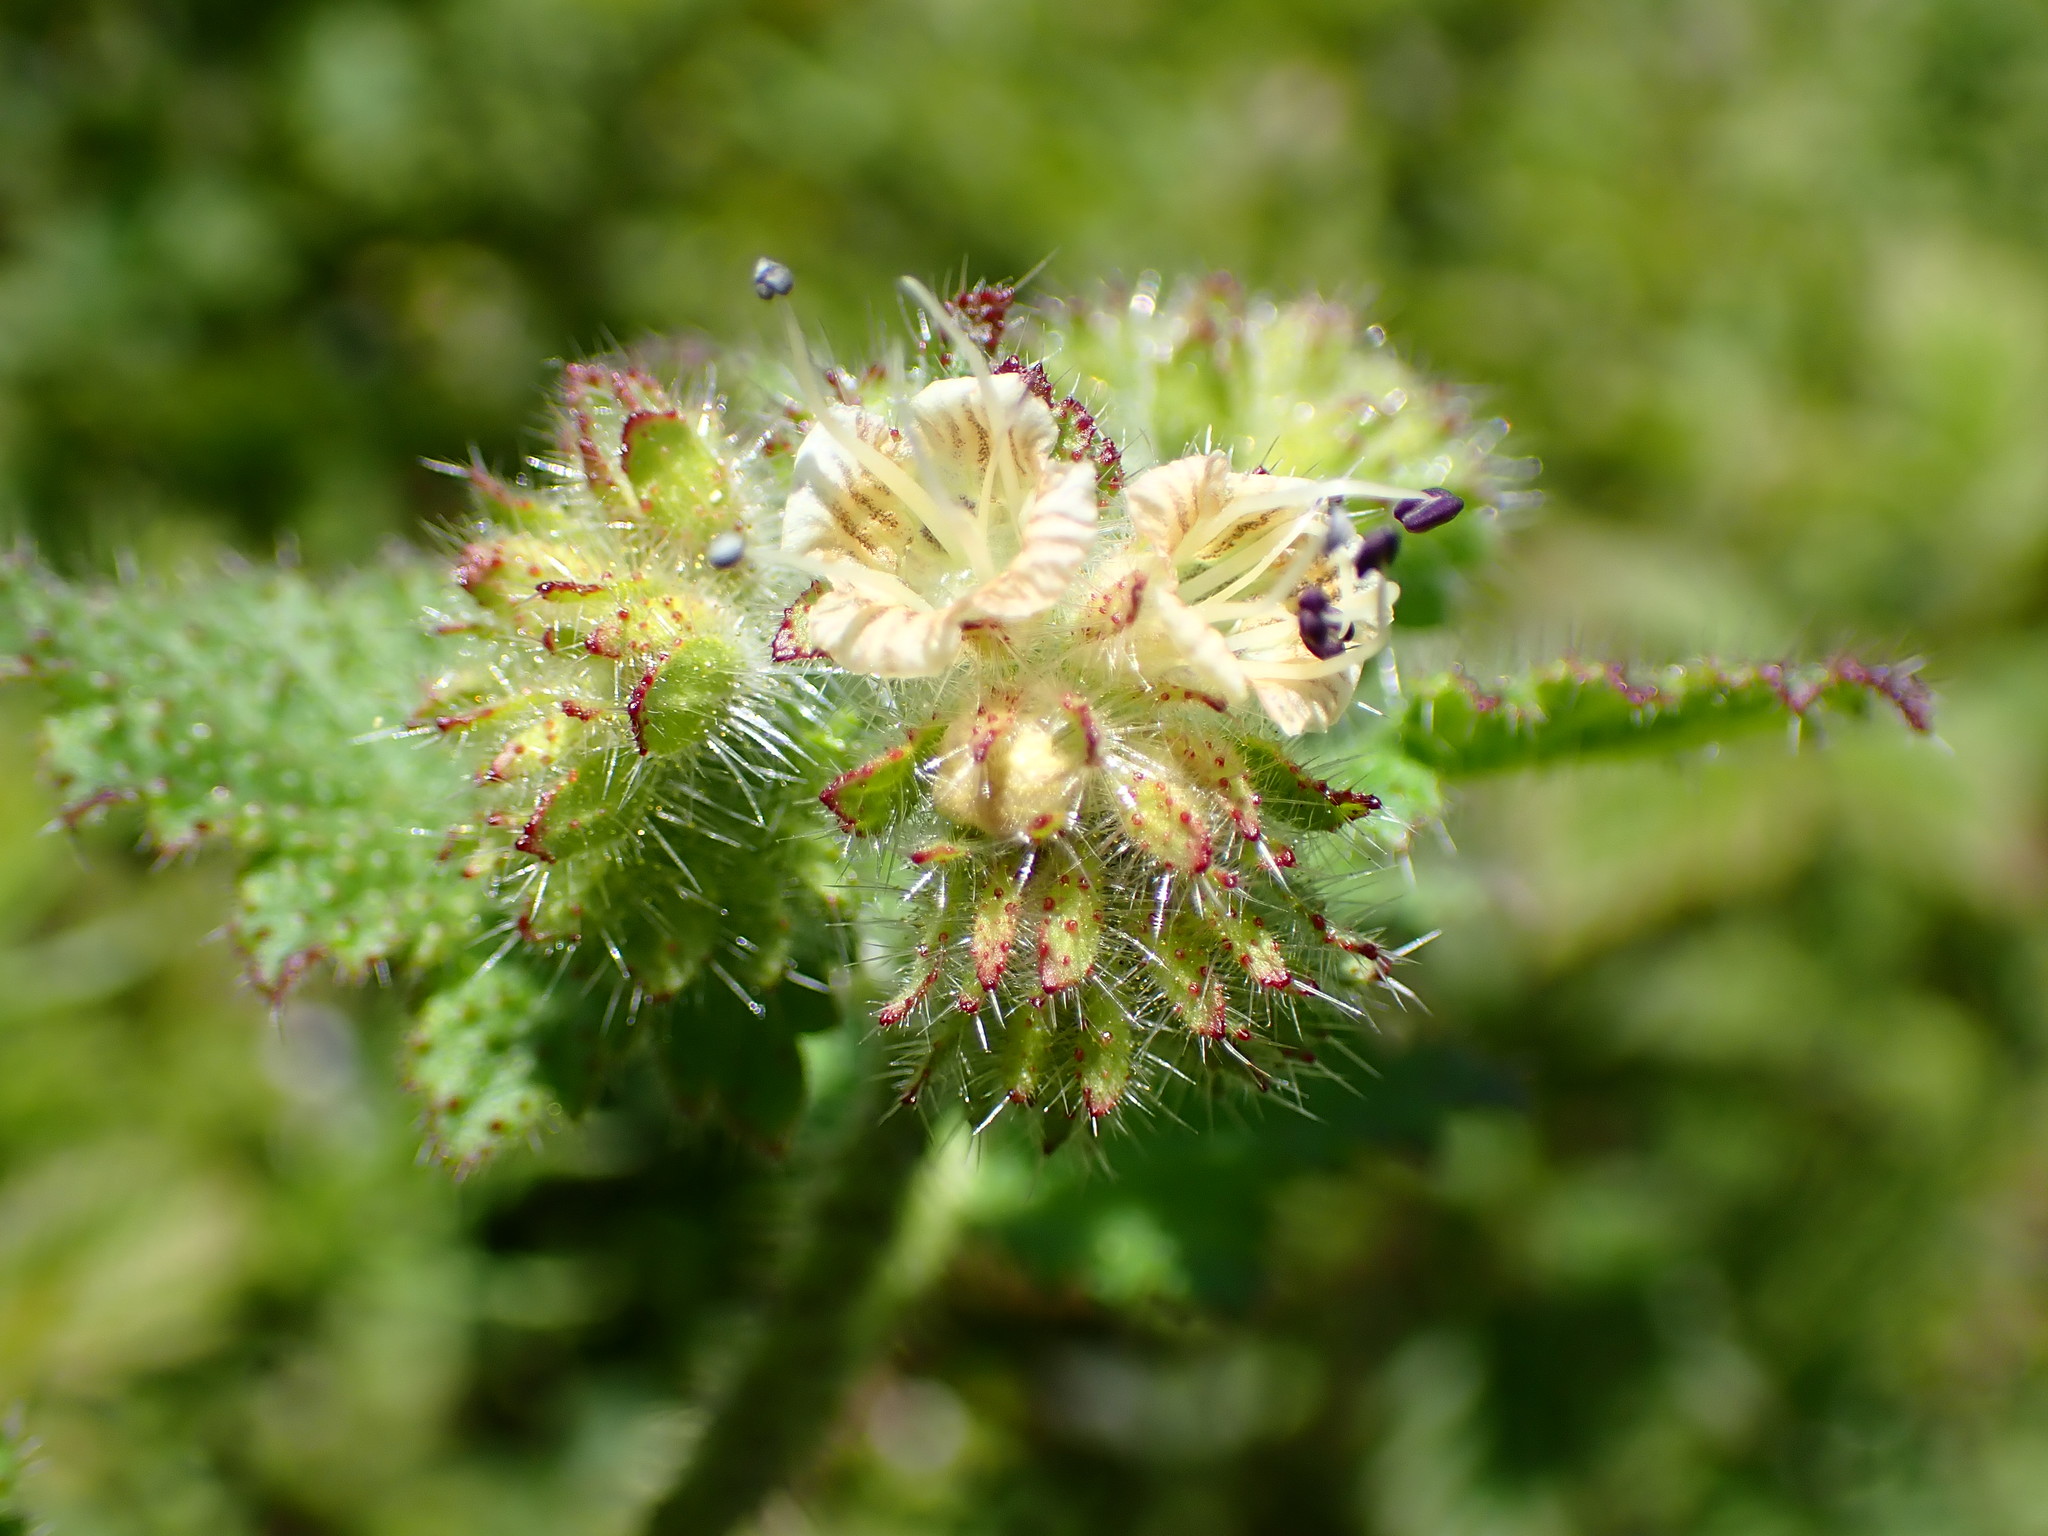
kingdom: Plantae
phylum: Tracheophyta
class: Magnoliopsida
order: Boraginales
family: Hydrophyllaceae
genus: Phacelia
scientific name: Phacelia malvifolia
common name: Mallow-leaf phacelia
